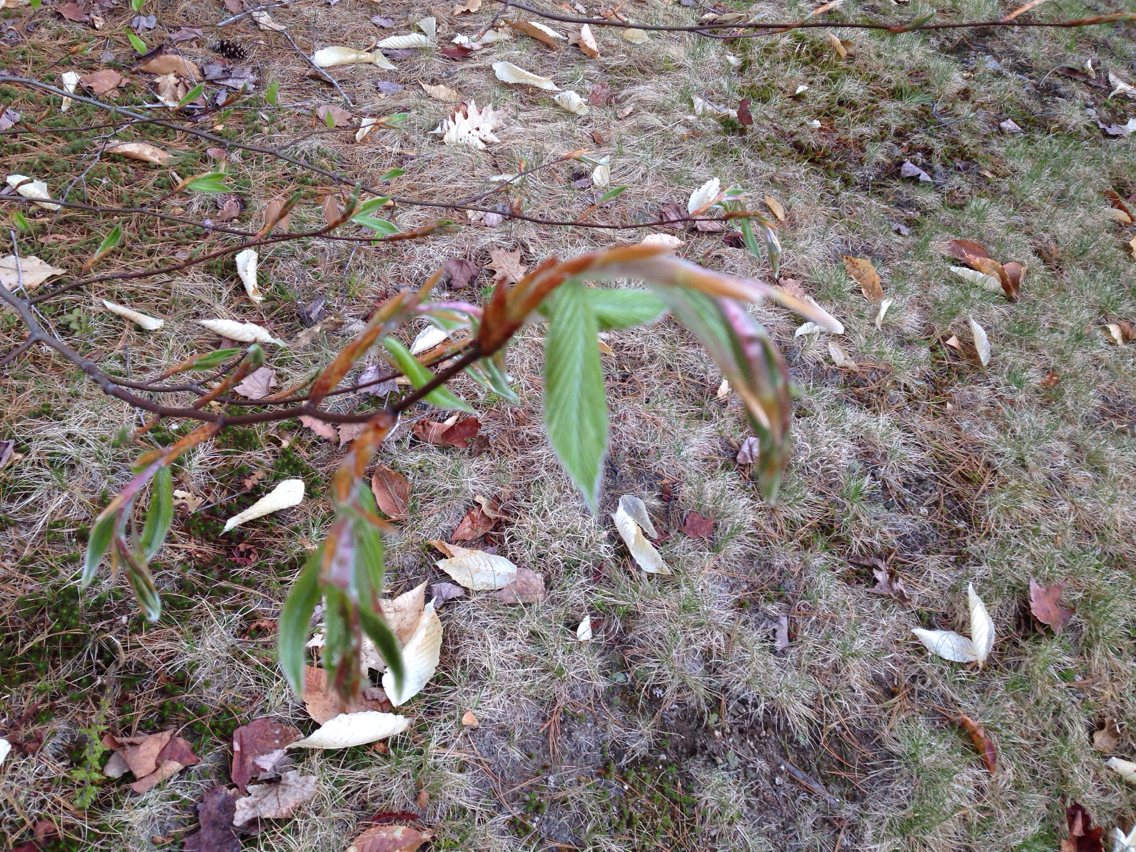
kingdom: Plantae
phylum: Tracheophyta
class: Magnoliopsida
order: Fagales
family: Fagaceae
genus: Fagus
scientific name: Fagus grandifolia
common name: American beech
